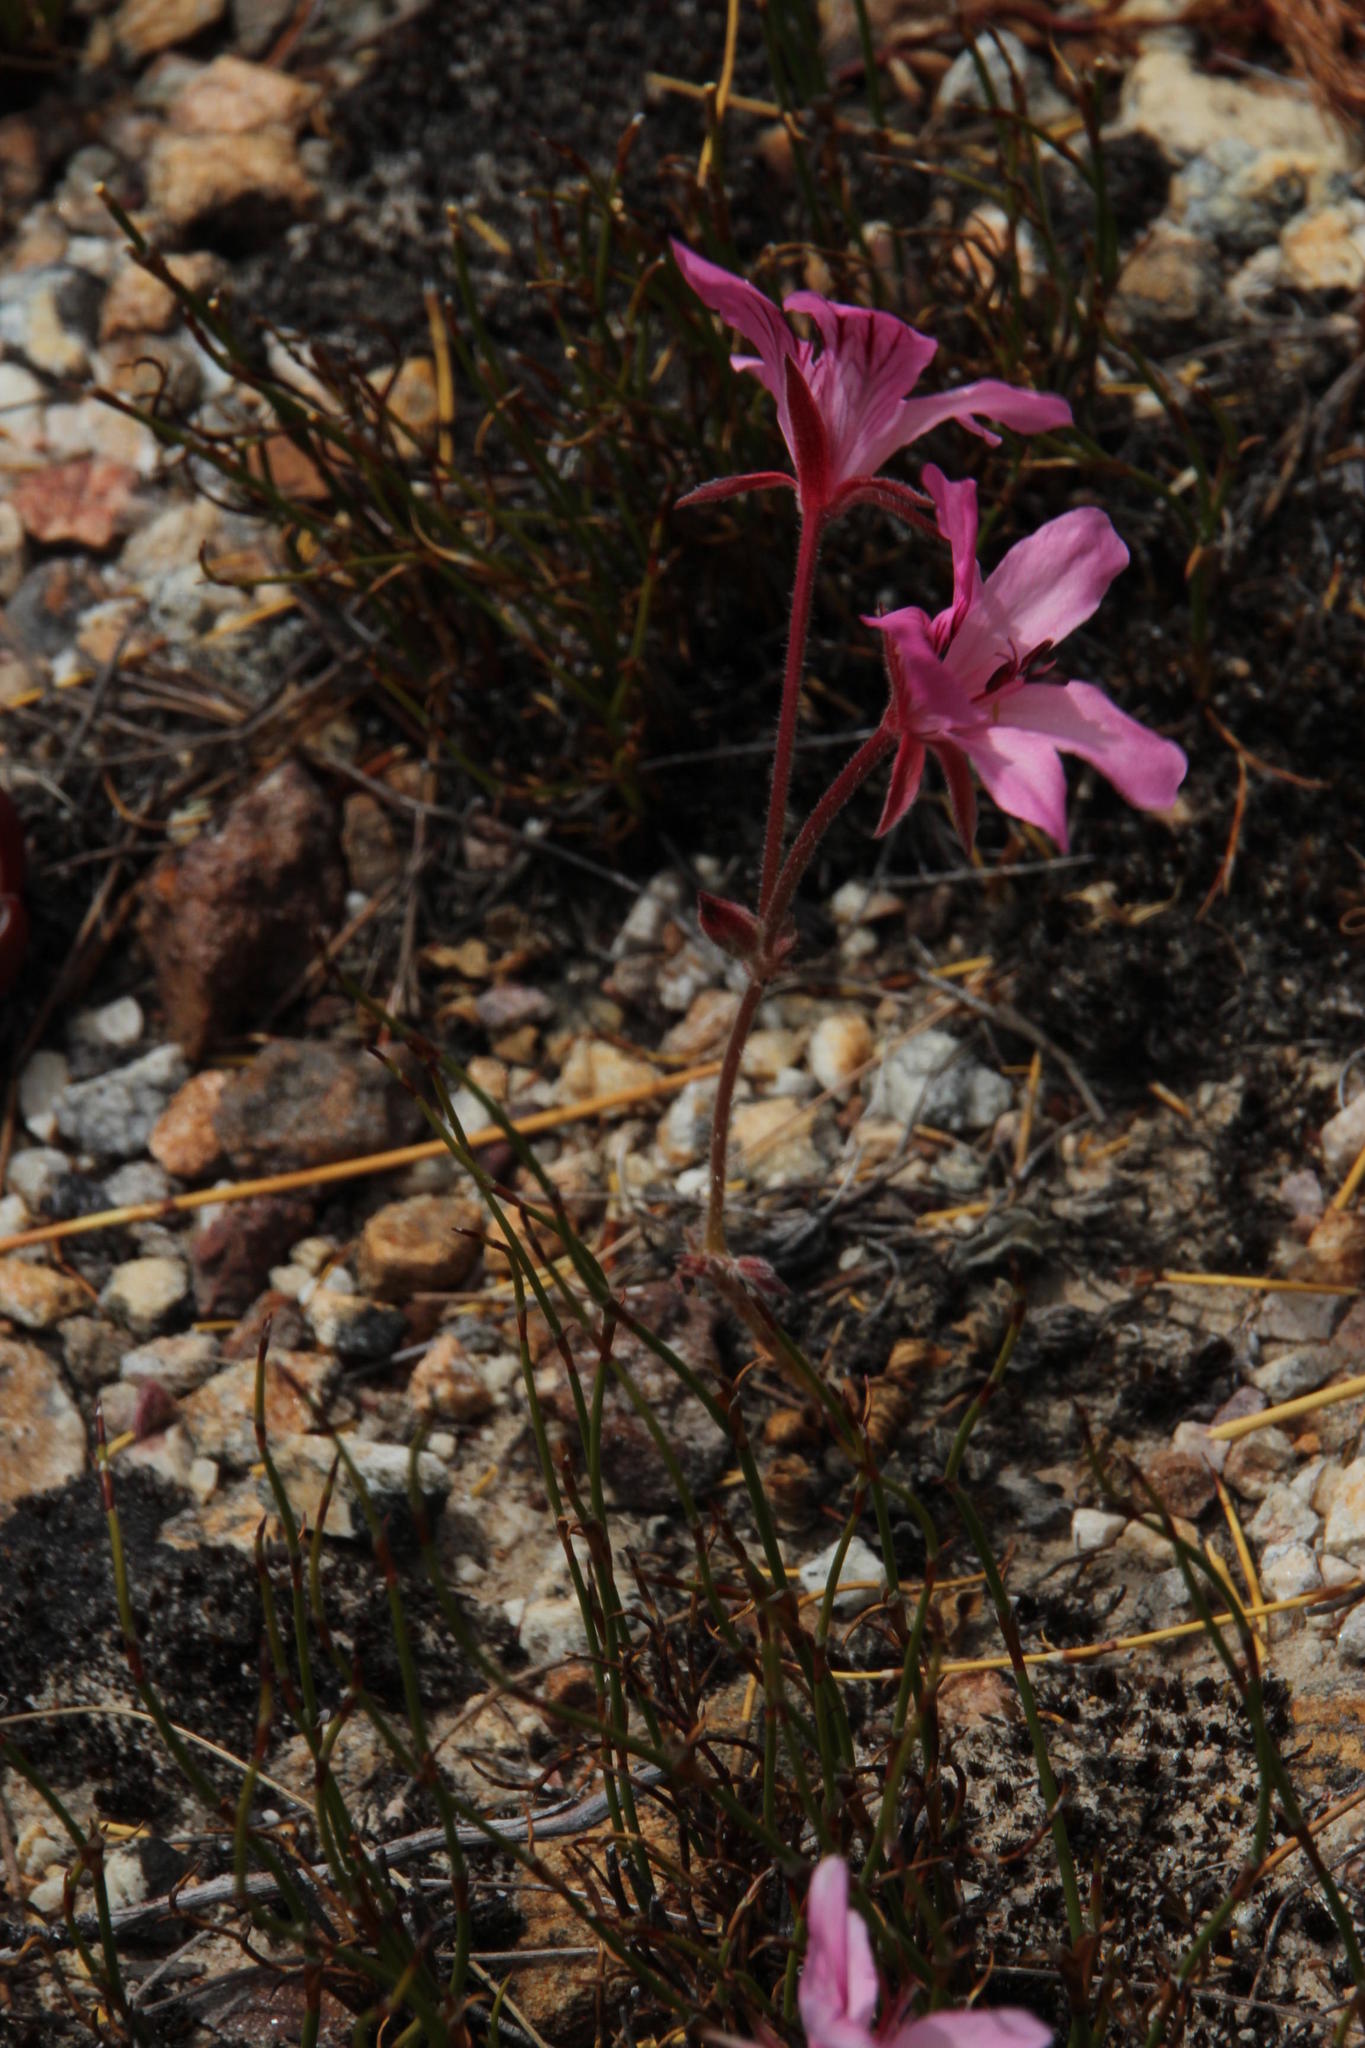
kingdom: Plantae
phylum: Tracheophyta
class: Magnoliopsida
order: Geraniales
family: Geraniaceae
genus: Pelargonium
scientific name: Pelargonium nummulifolium
